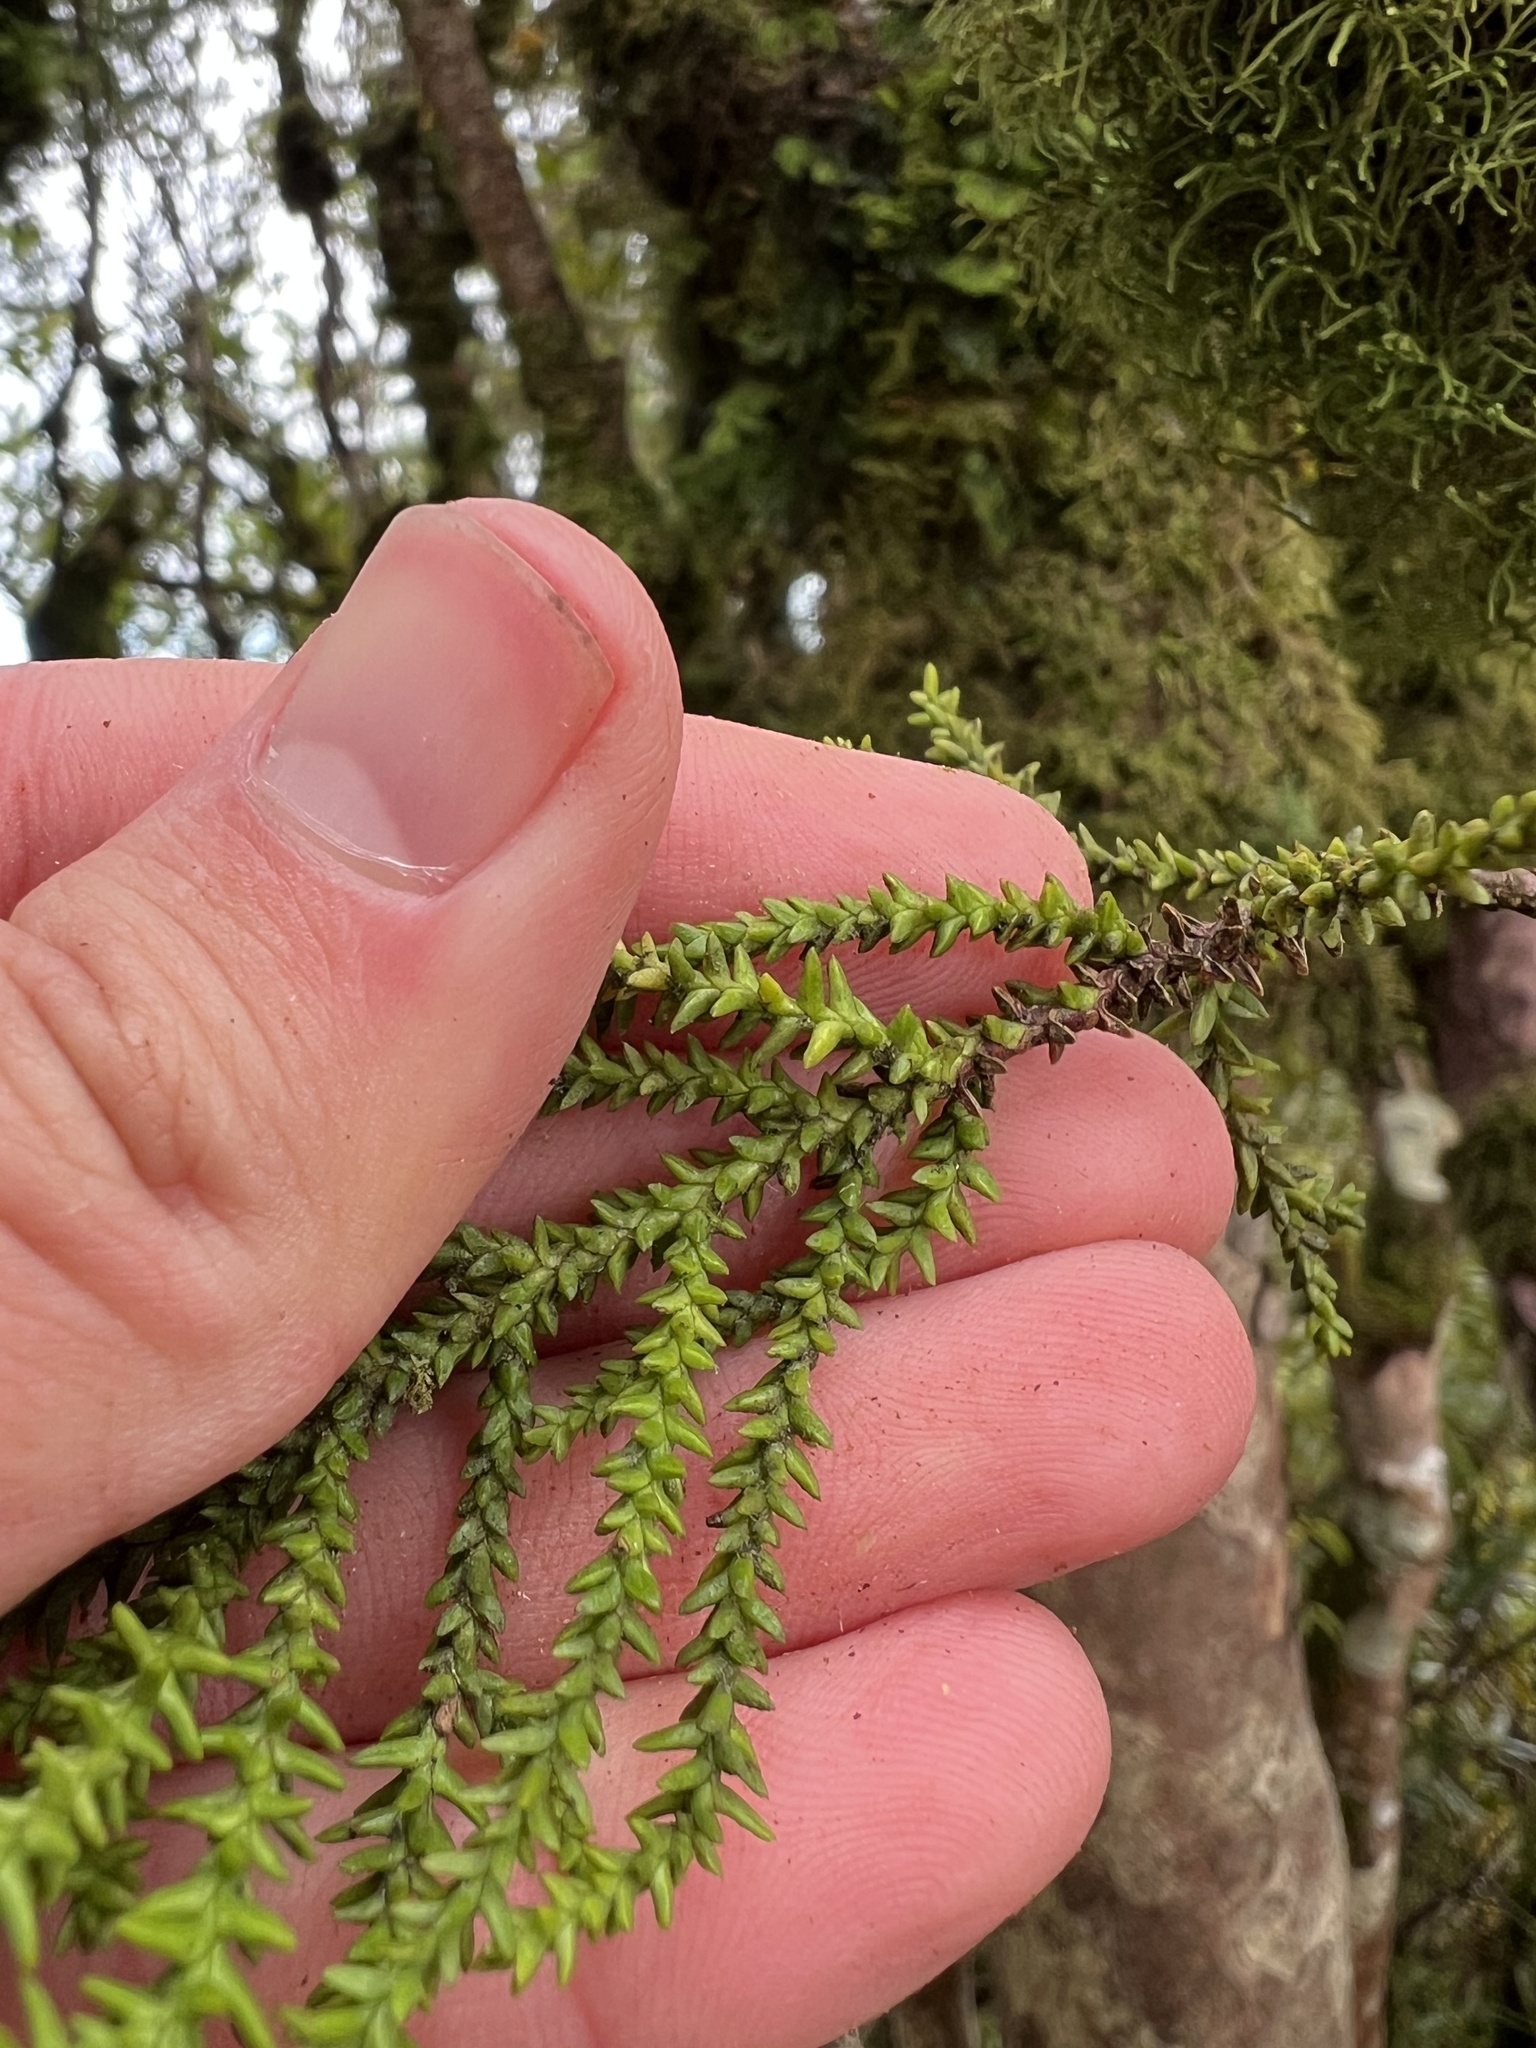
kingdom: Plantae
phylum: Tracheophyta
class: Pinopsida
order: Pinales
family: Podocarpaceae
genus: Lepidothamnus
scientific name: Lepidothamnus intermedius
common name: Yellow silver pine
